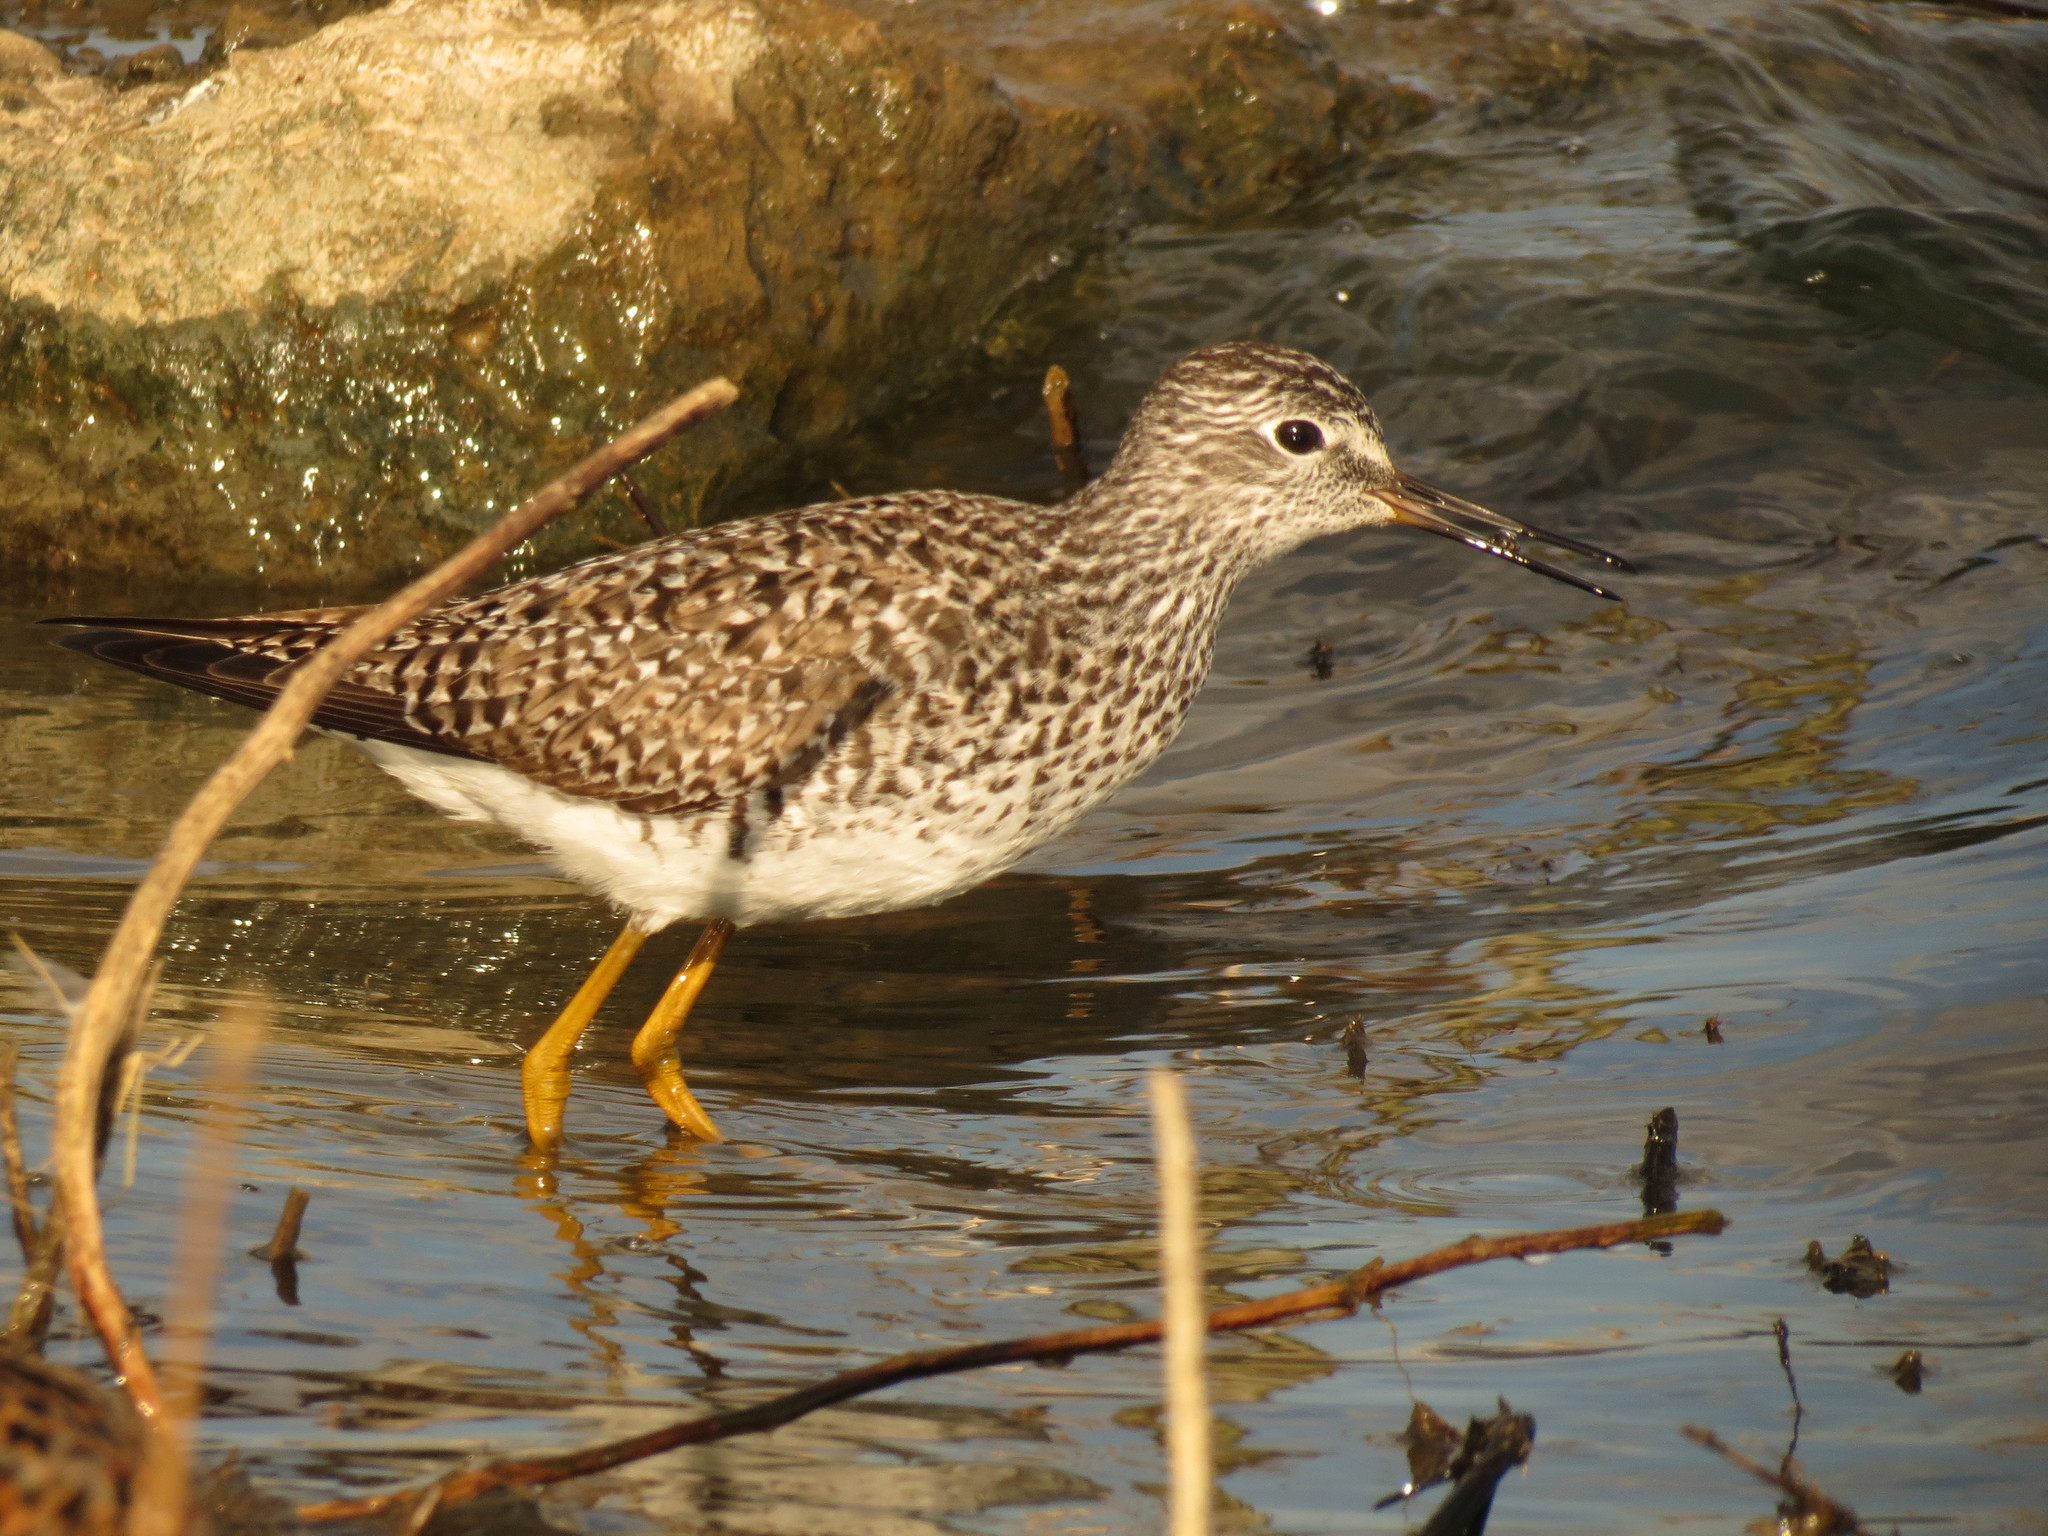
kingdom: Animalia
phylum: Chordata
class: Aves
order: Charadriiformes
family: Scolopacidae
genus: Tringa
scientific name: Tringa flavipes
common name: Lesser yellowlegs
